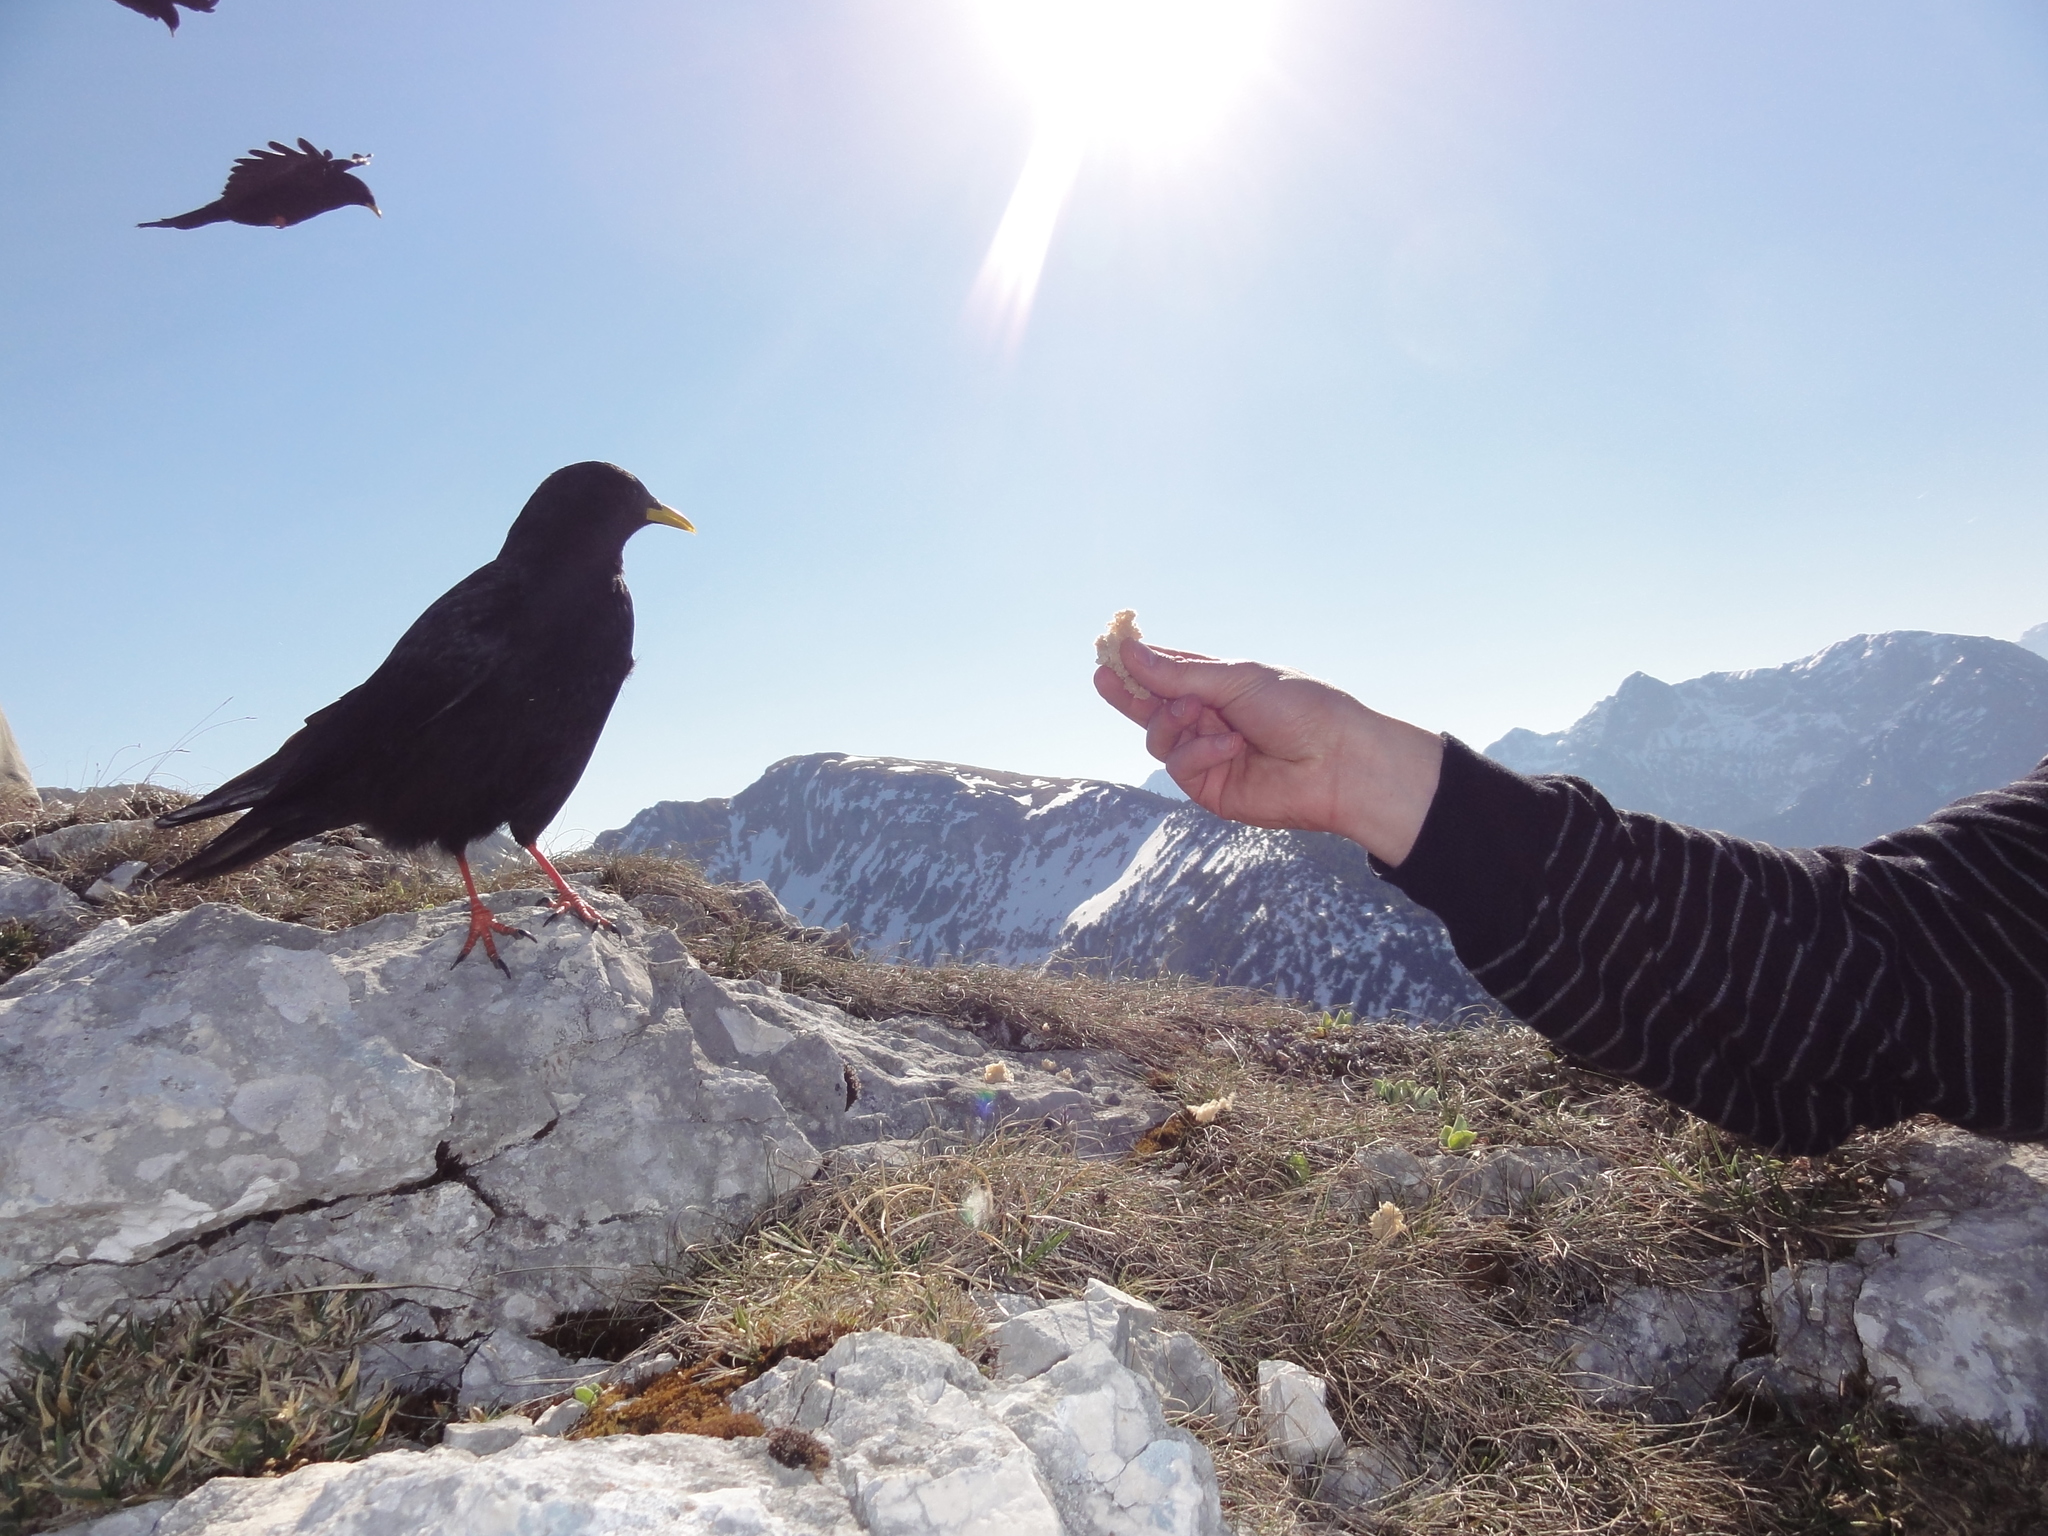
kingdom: Animalia
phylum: Chordata
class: Aves
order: Passeriformes
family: Corvidae
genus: Pyrrhocorax
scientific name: Pyrrhocorax graculus
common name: Alpine chough
